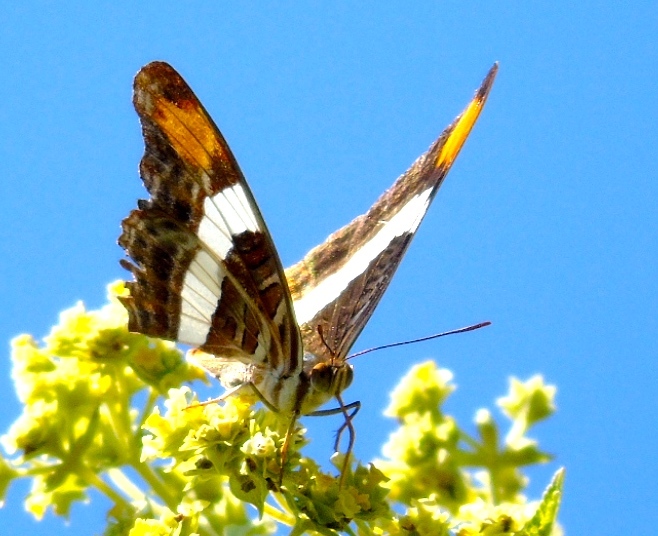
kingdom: Animalia
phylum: Arthropoda
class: Insecta
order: Lepidoptera
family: Nymphalidae
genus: Limenitis
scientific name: Limenitis fessonia
